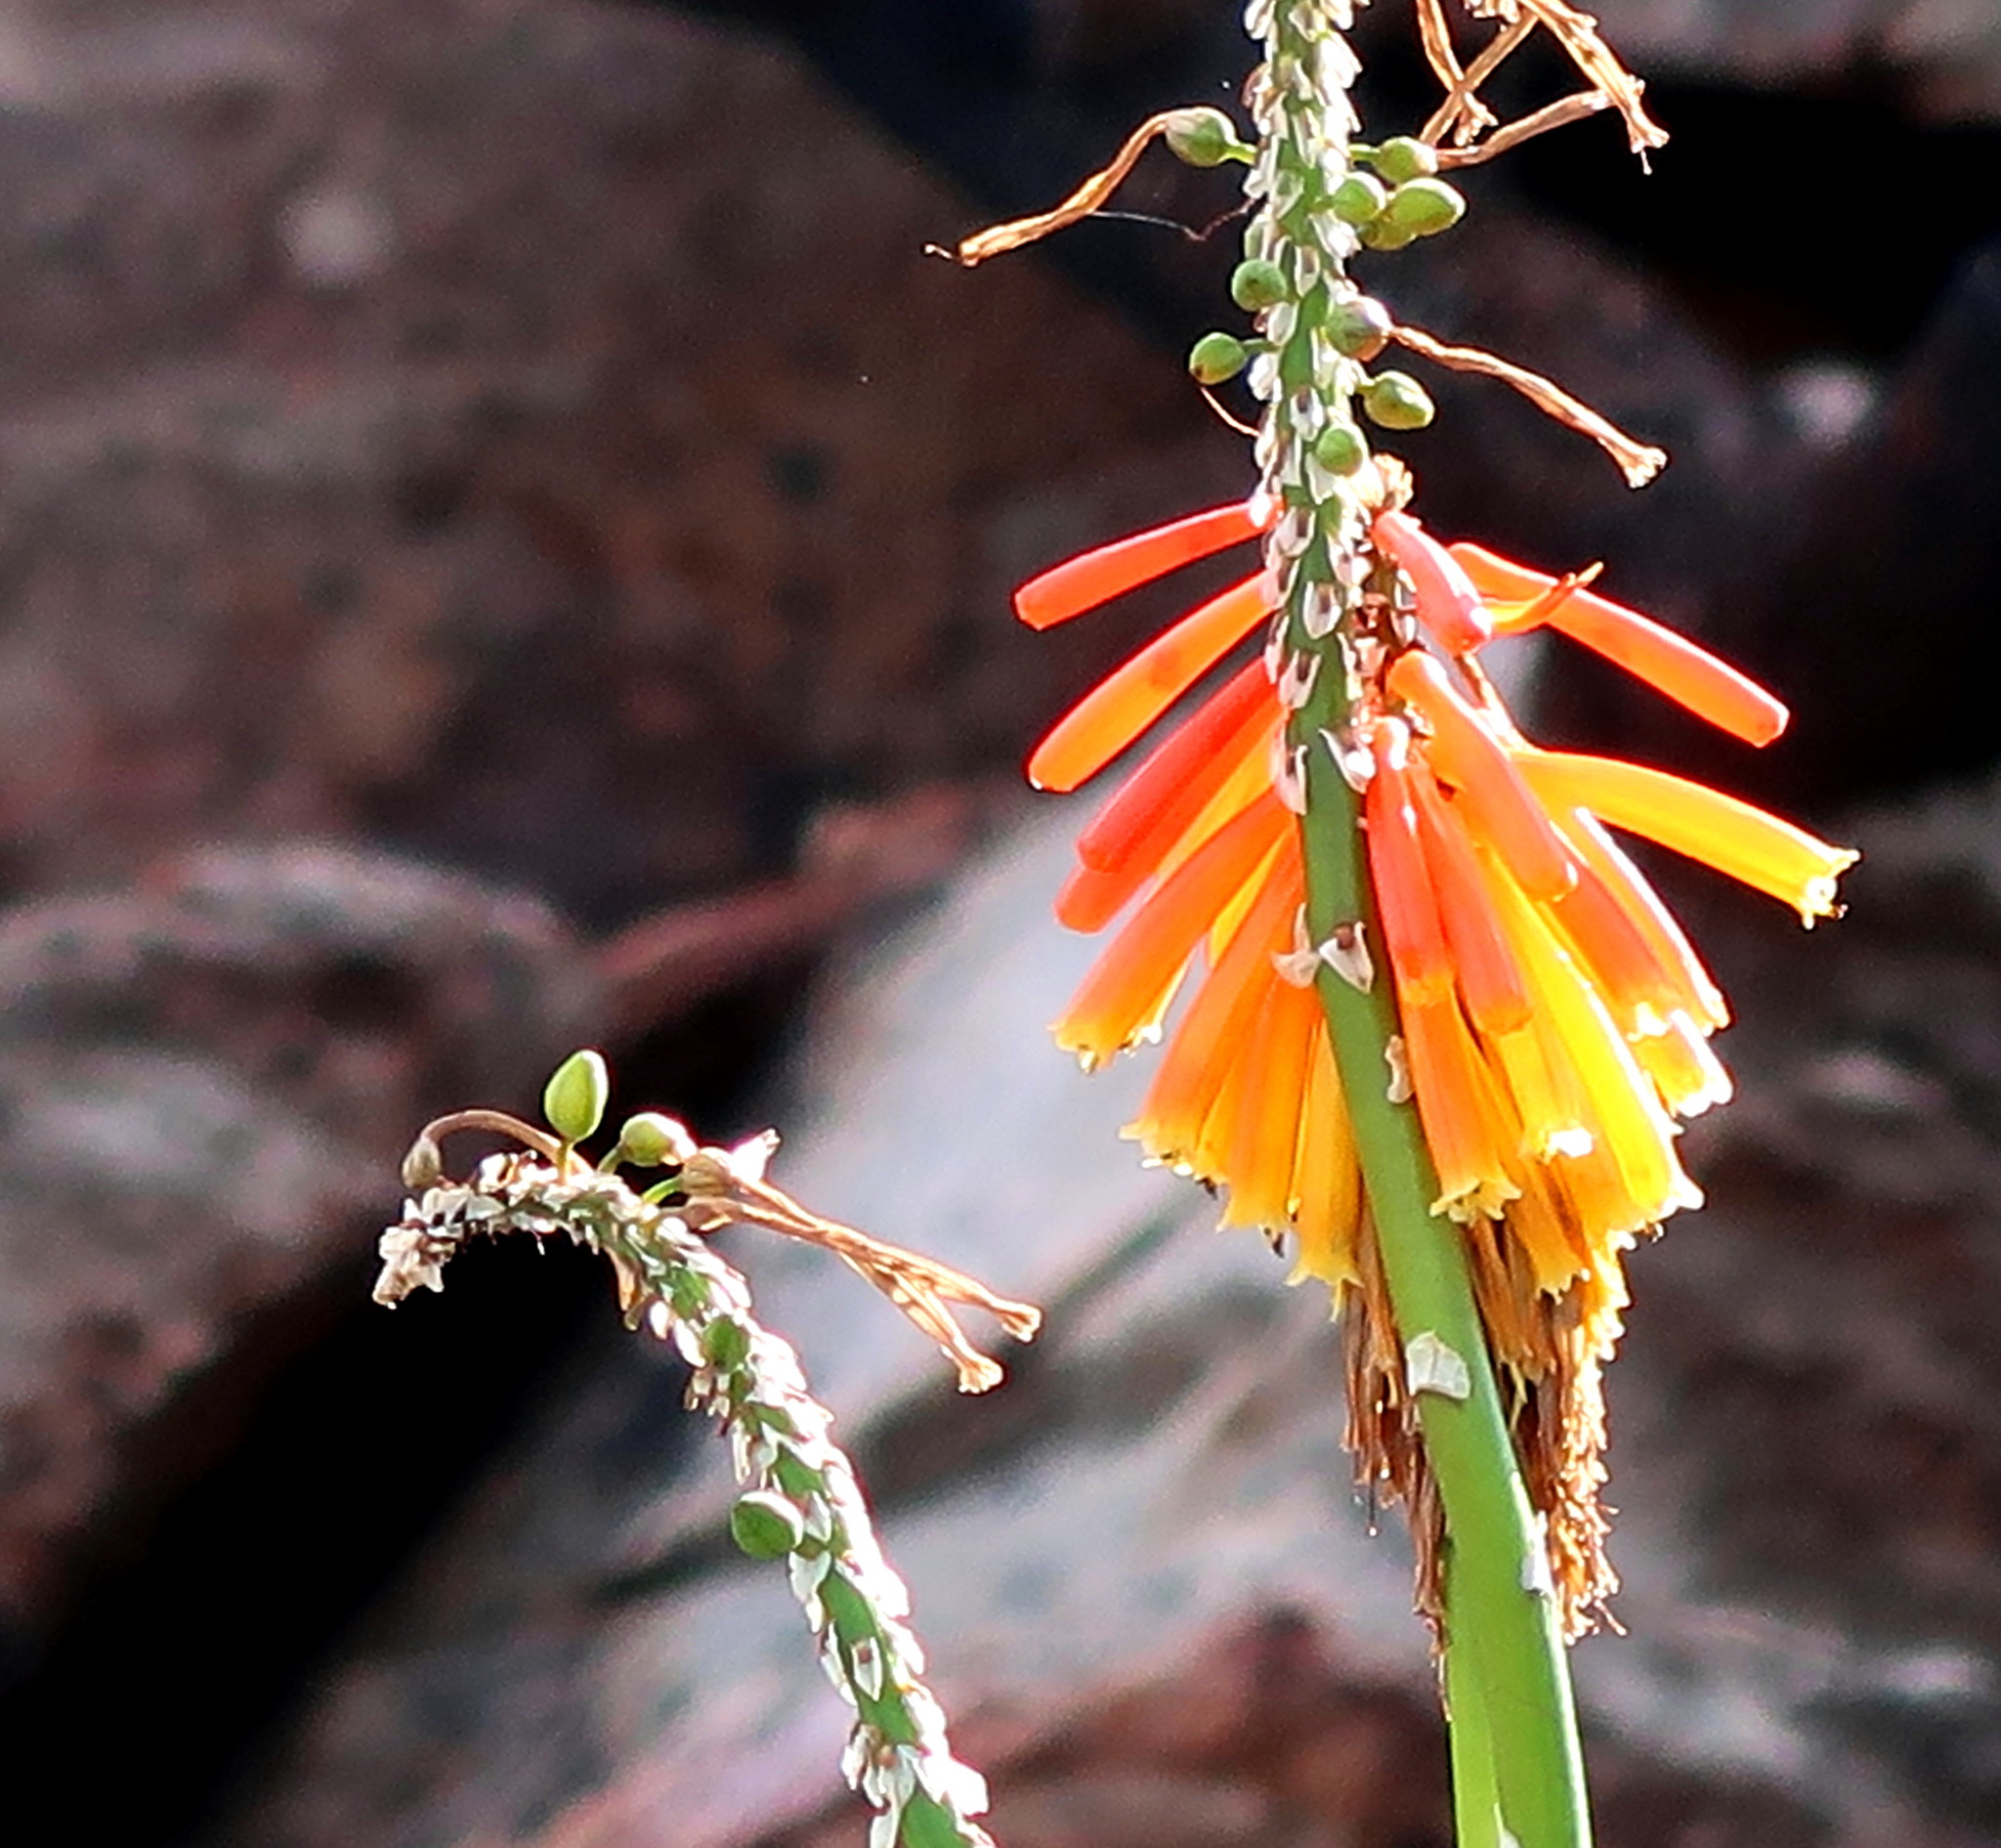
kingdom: Plantae
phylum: Tracheophyta
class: Liliopsida
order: Asparagales
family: Asphodelaceae
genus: Kniphofia
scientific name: Kniphofia uvaria
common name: Red-hot-poker
